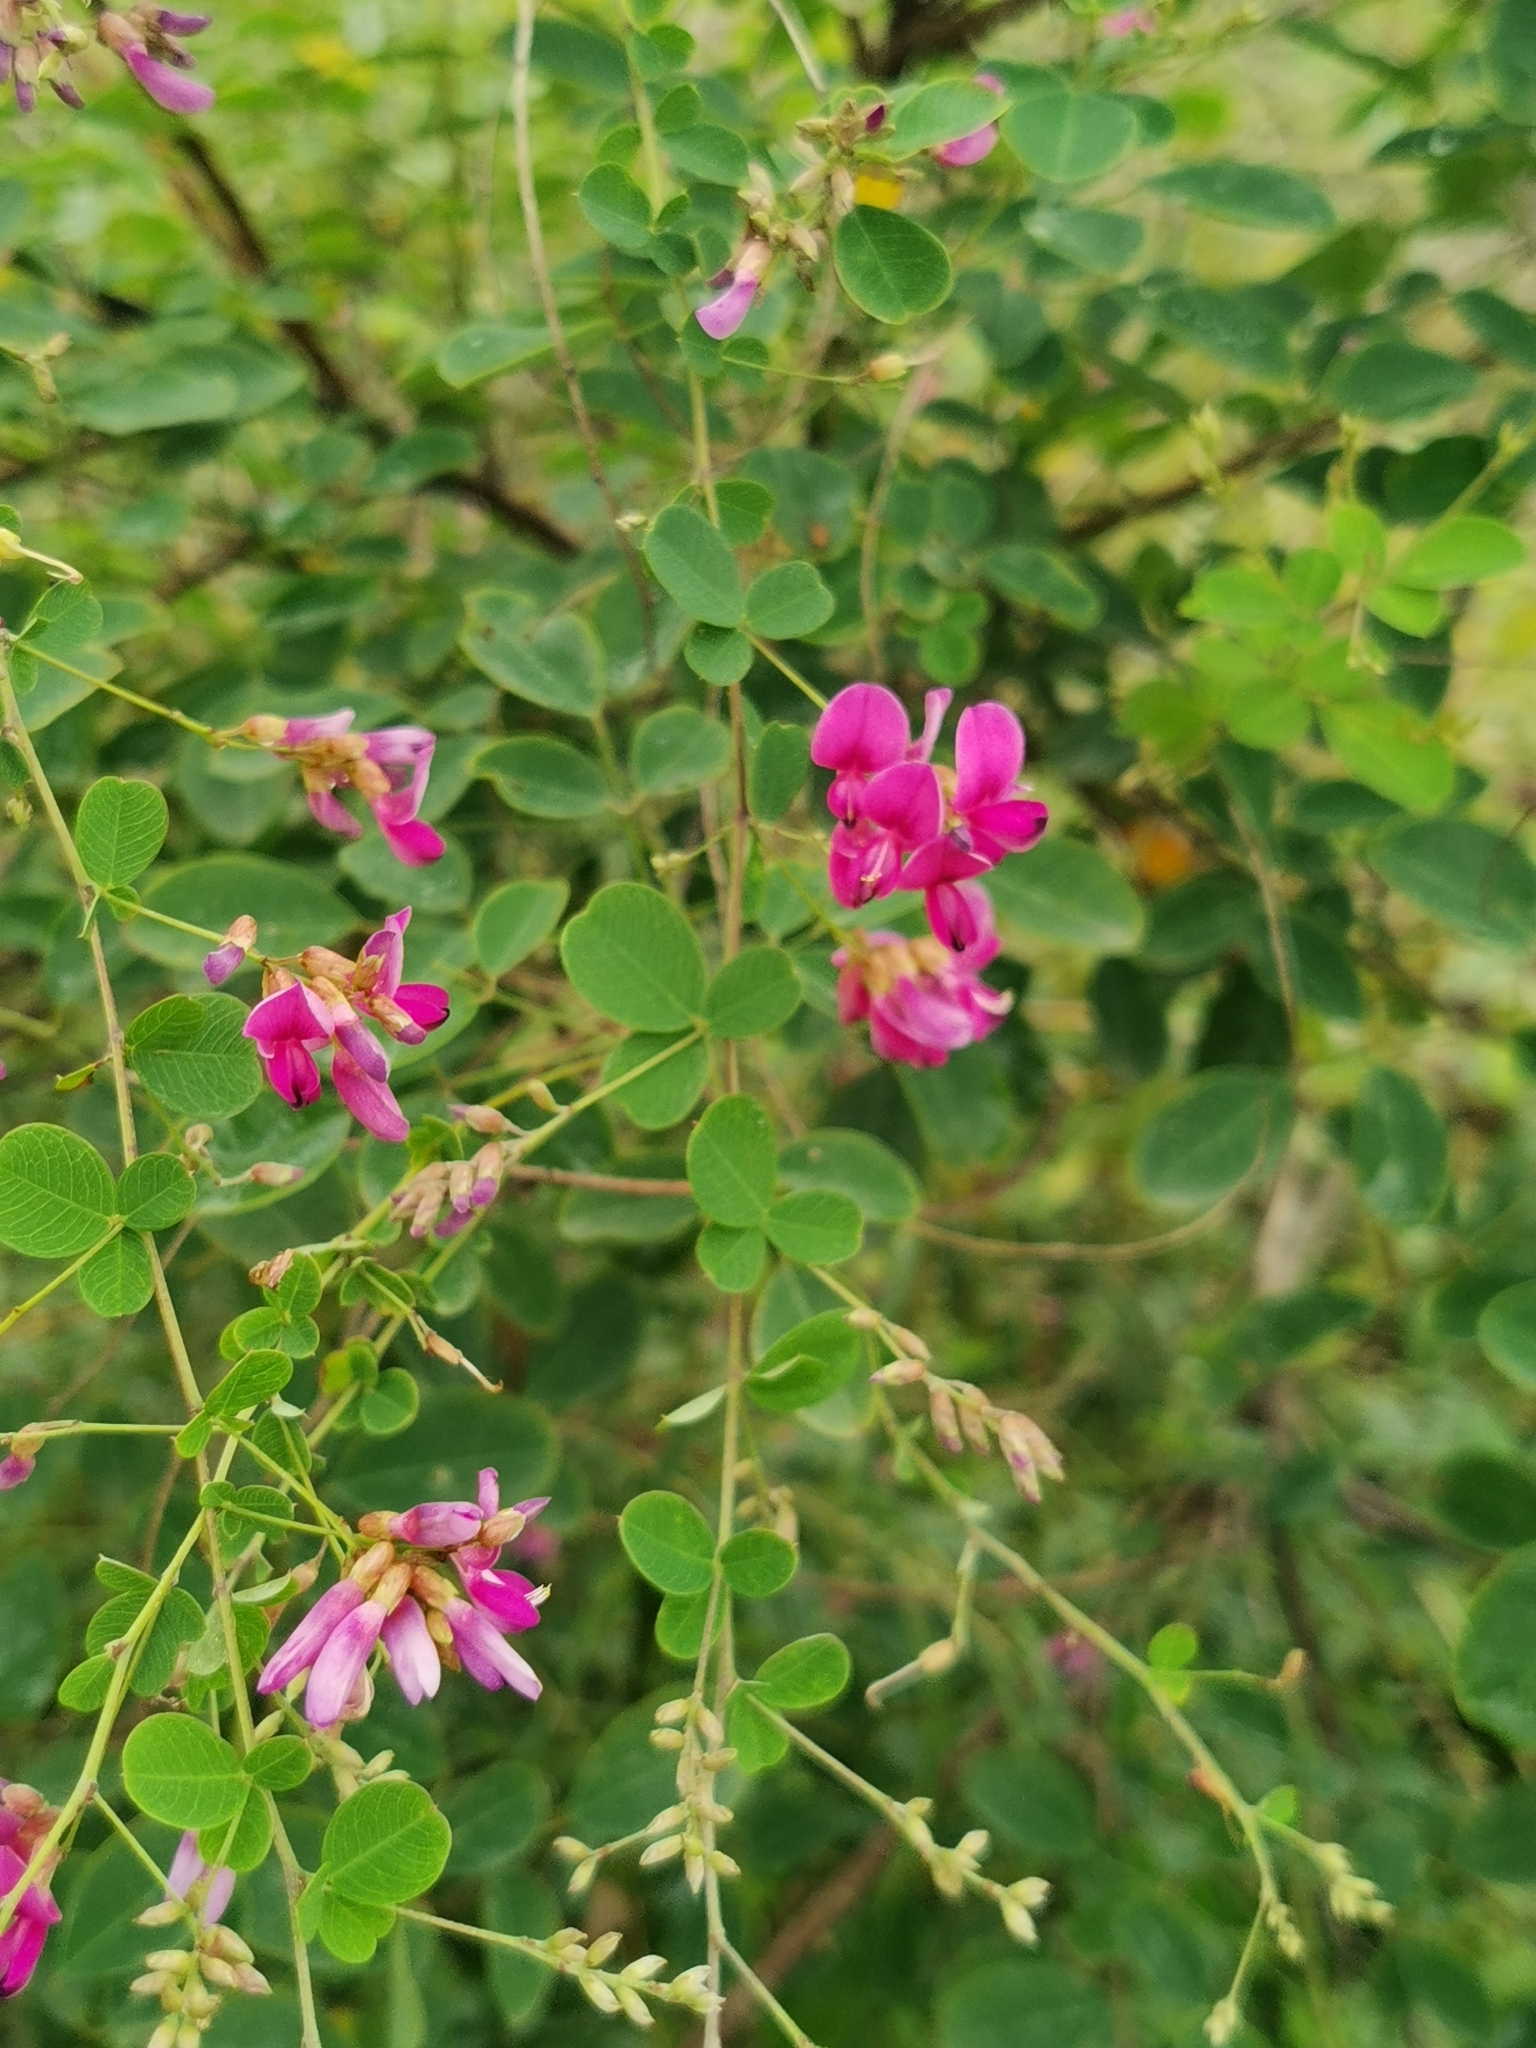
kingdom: Plantae
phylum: Tracheophyta
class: Magnoliopsida
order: Fabales
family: Fabaceae
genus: Lespedeza
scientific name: Lespedeza bicolor
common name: Shrub lespedeza
